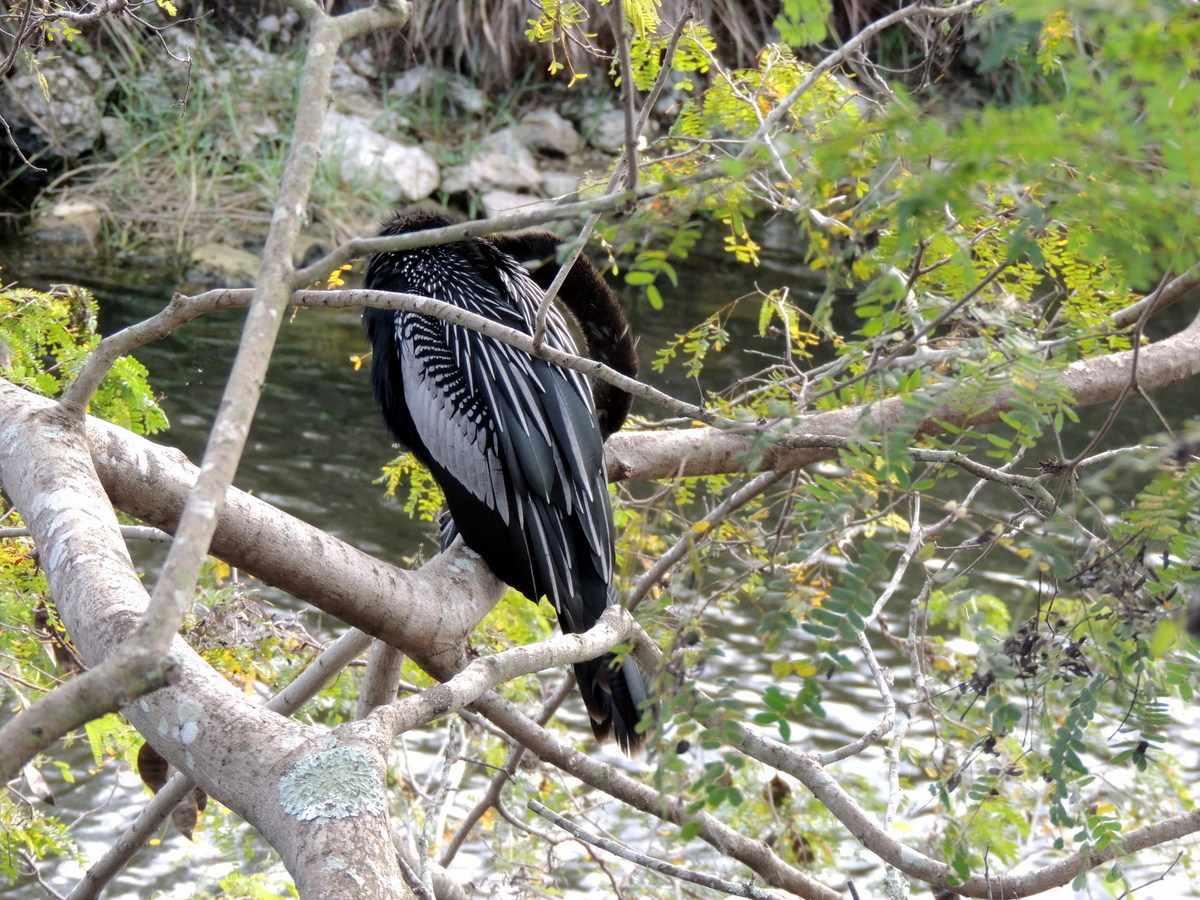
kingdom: Animalia
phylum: Chordata
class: Aves
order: Suliformes
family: Anhingidae
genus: Anhinga
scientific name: Anhinga anhinga
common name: Anhinga
